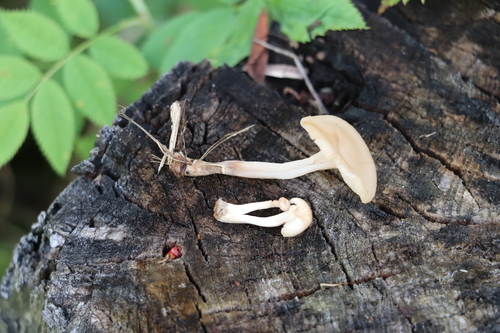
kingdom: Fungi
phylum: Basidiomycota
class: Agaricomycetes
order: Russulales
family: Auriscalpiaceae
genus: Lentinellus
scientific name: Lentinellus micheneri
